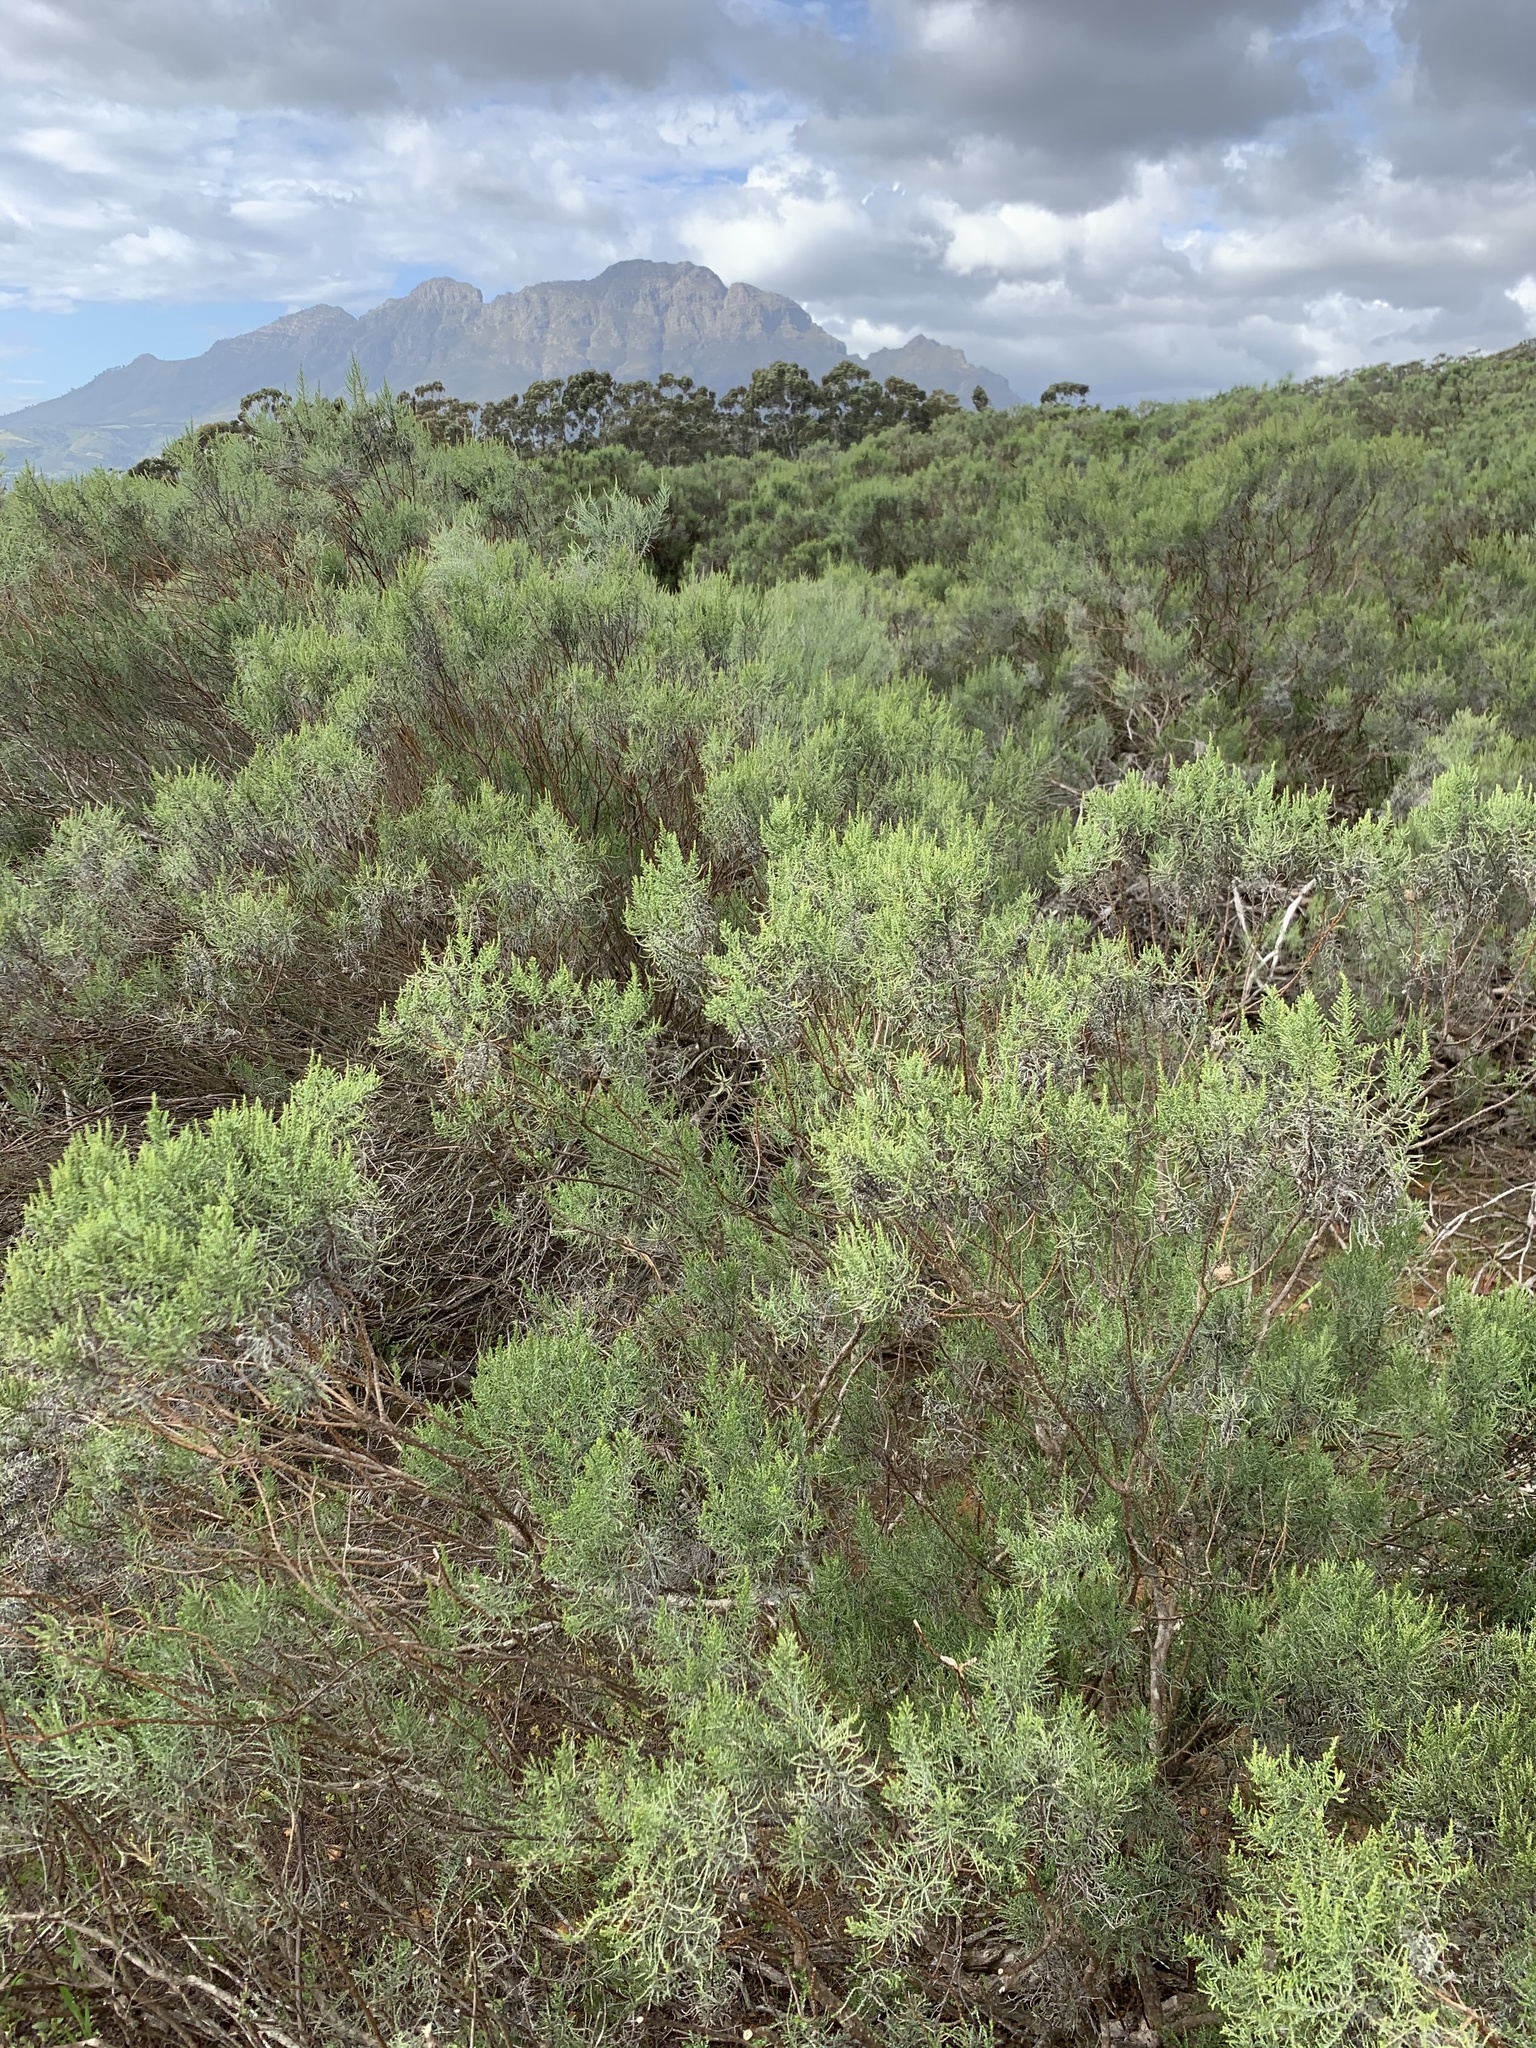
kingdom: Plantae
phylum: Tracheophyta
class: Magnoliopsida
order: Asterales
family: Asteraceae
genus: Dicerothamnus
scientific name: Dicerothamnus rhinocerotis
